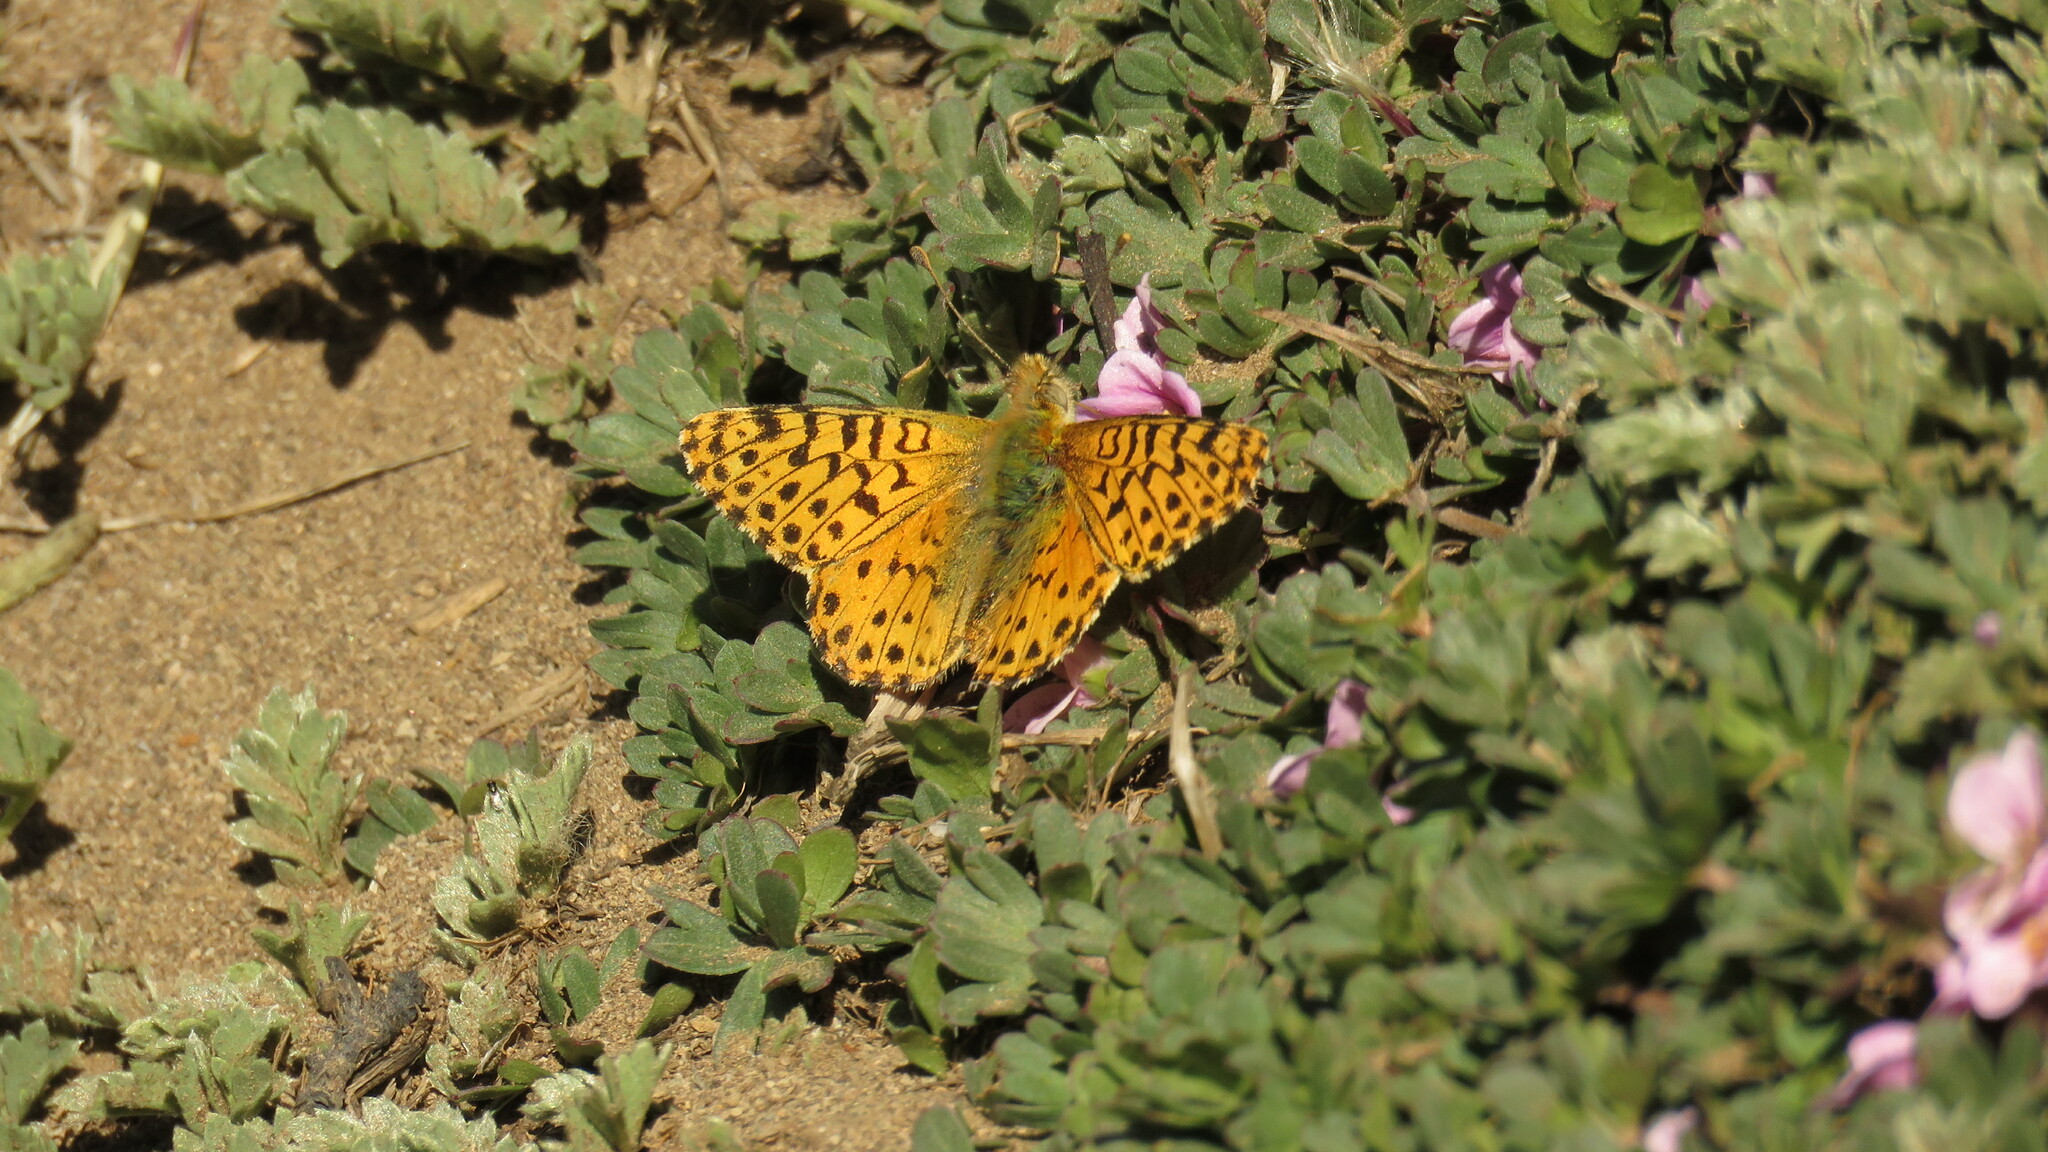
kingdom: Animalia
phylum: Arthropoda
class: Insecta
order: Lepidoptera
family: Nymphalidae
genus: Issoria
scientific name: Issoria Yramea lathonoides
